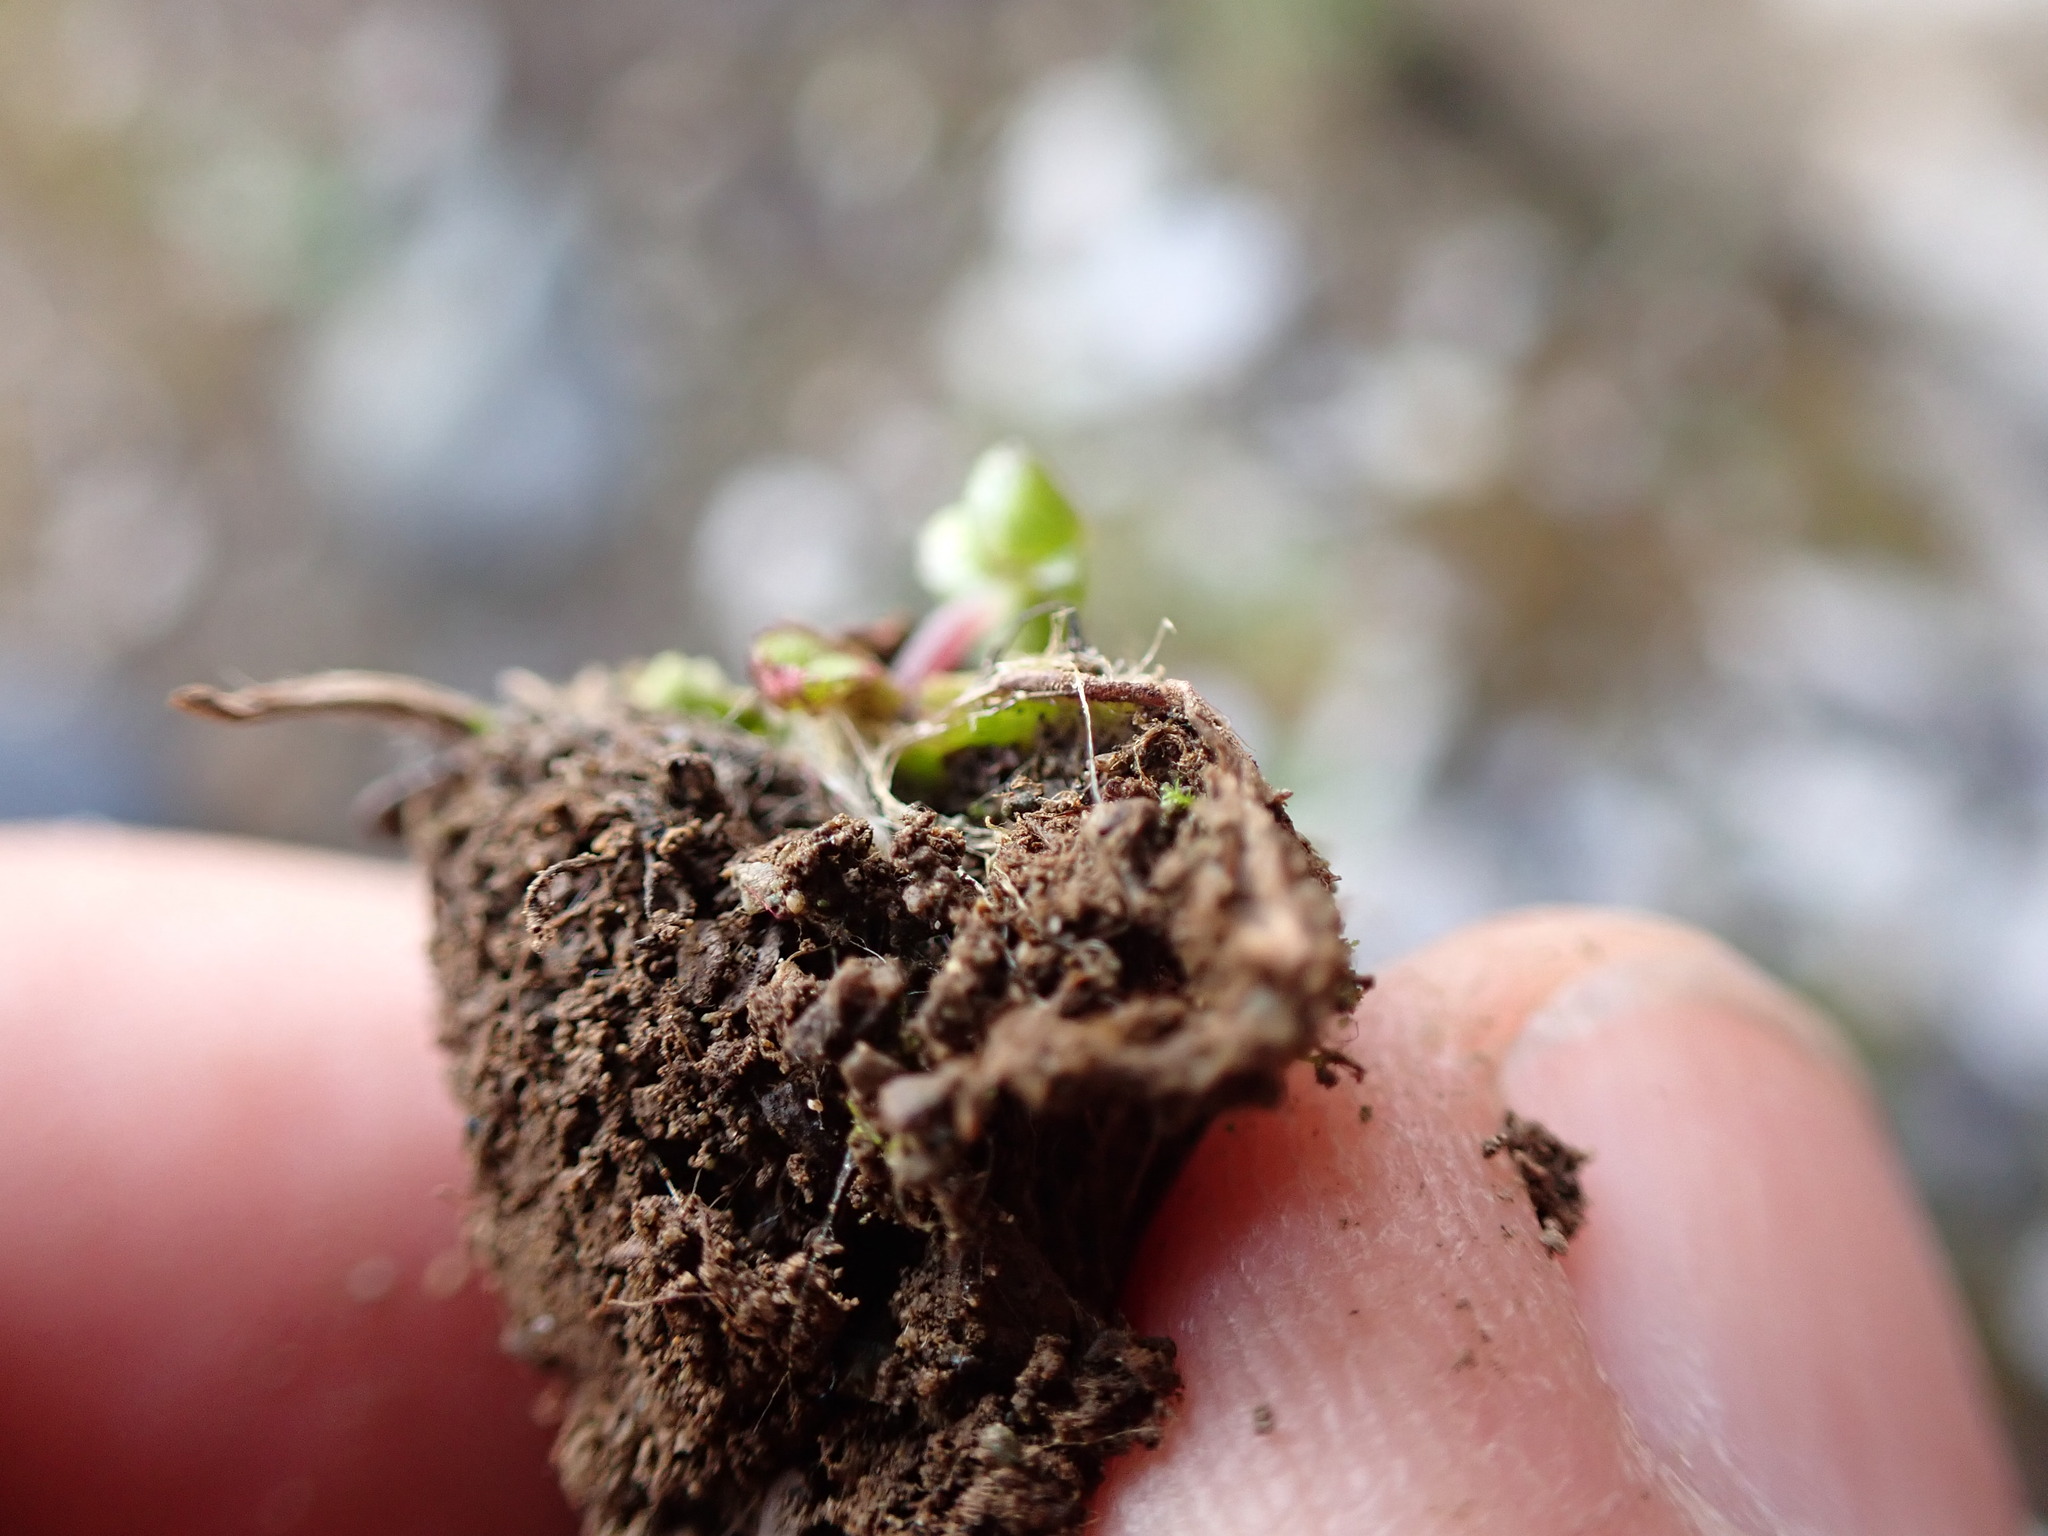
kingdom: Plantae
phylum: Marchantiophyta
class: Marchantiopsida
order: Marchantiales
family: Cleveaceae
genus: Peltolepis
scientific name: Peltolepis quadrata
